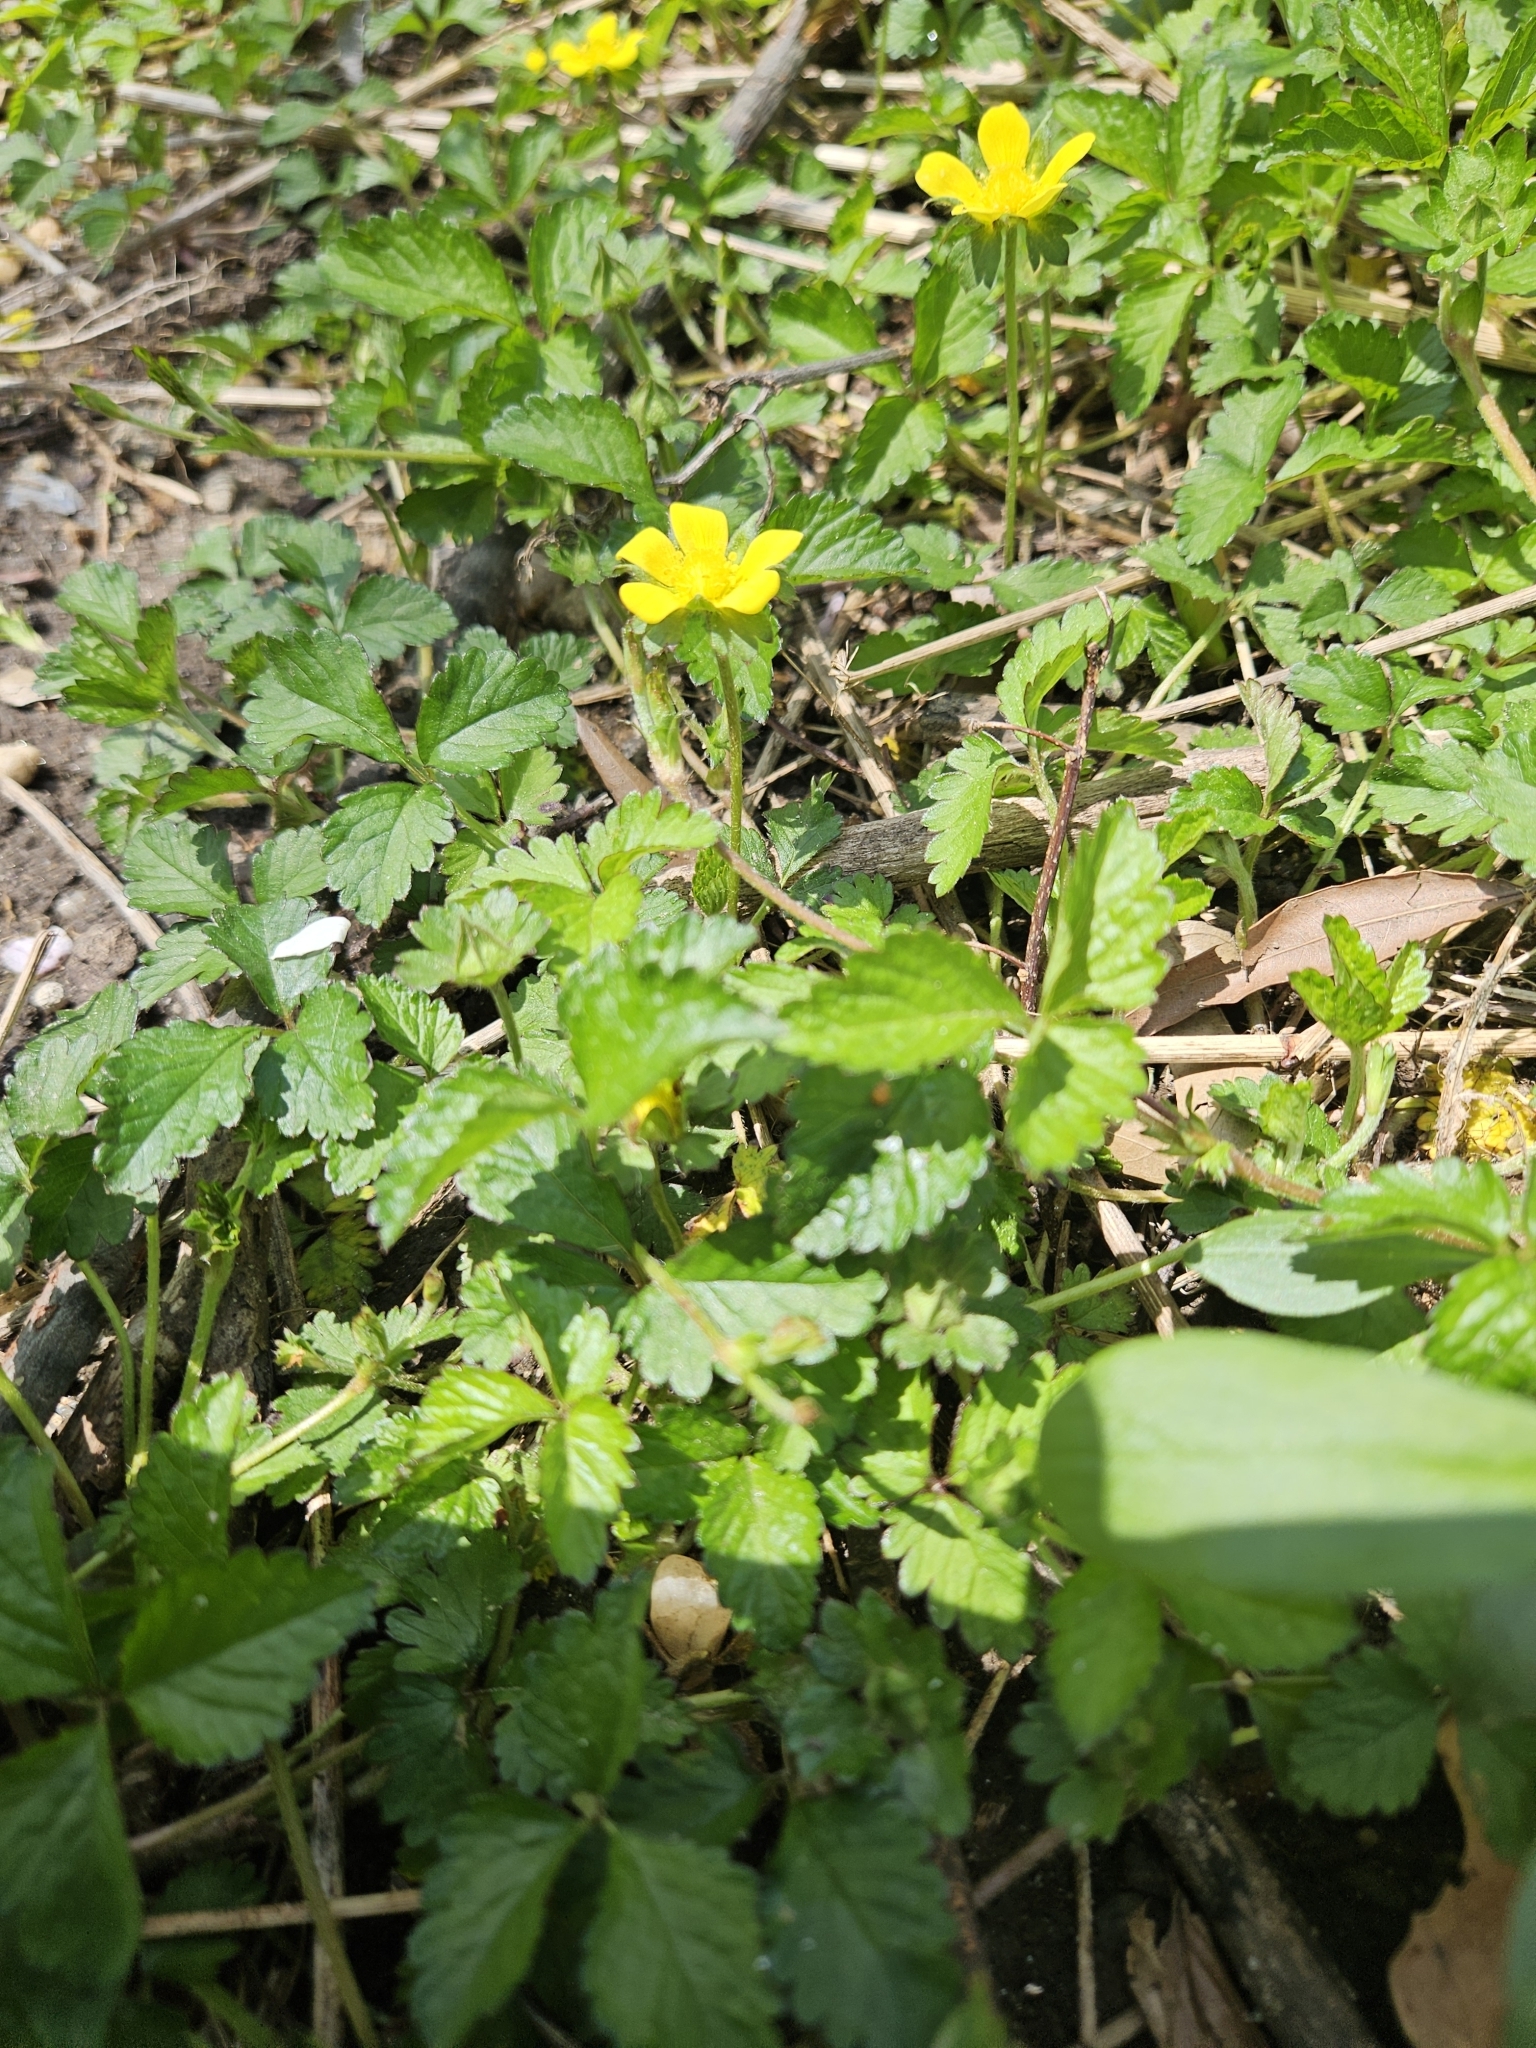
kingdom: Plantae
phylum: Tracheophyta
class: Magnoliopsida
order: Rosales
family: Rosaceae
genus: Potentilla
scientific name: Potentilla indica
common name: Yellow-flowered strawberry
